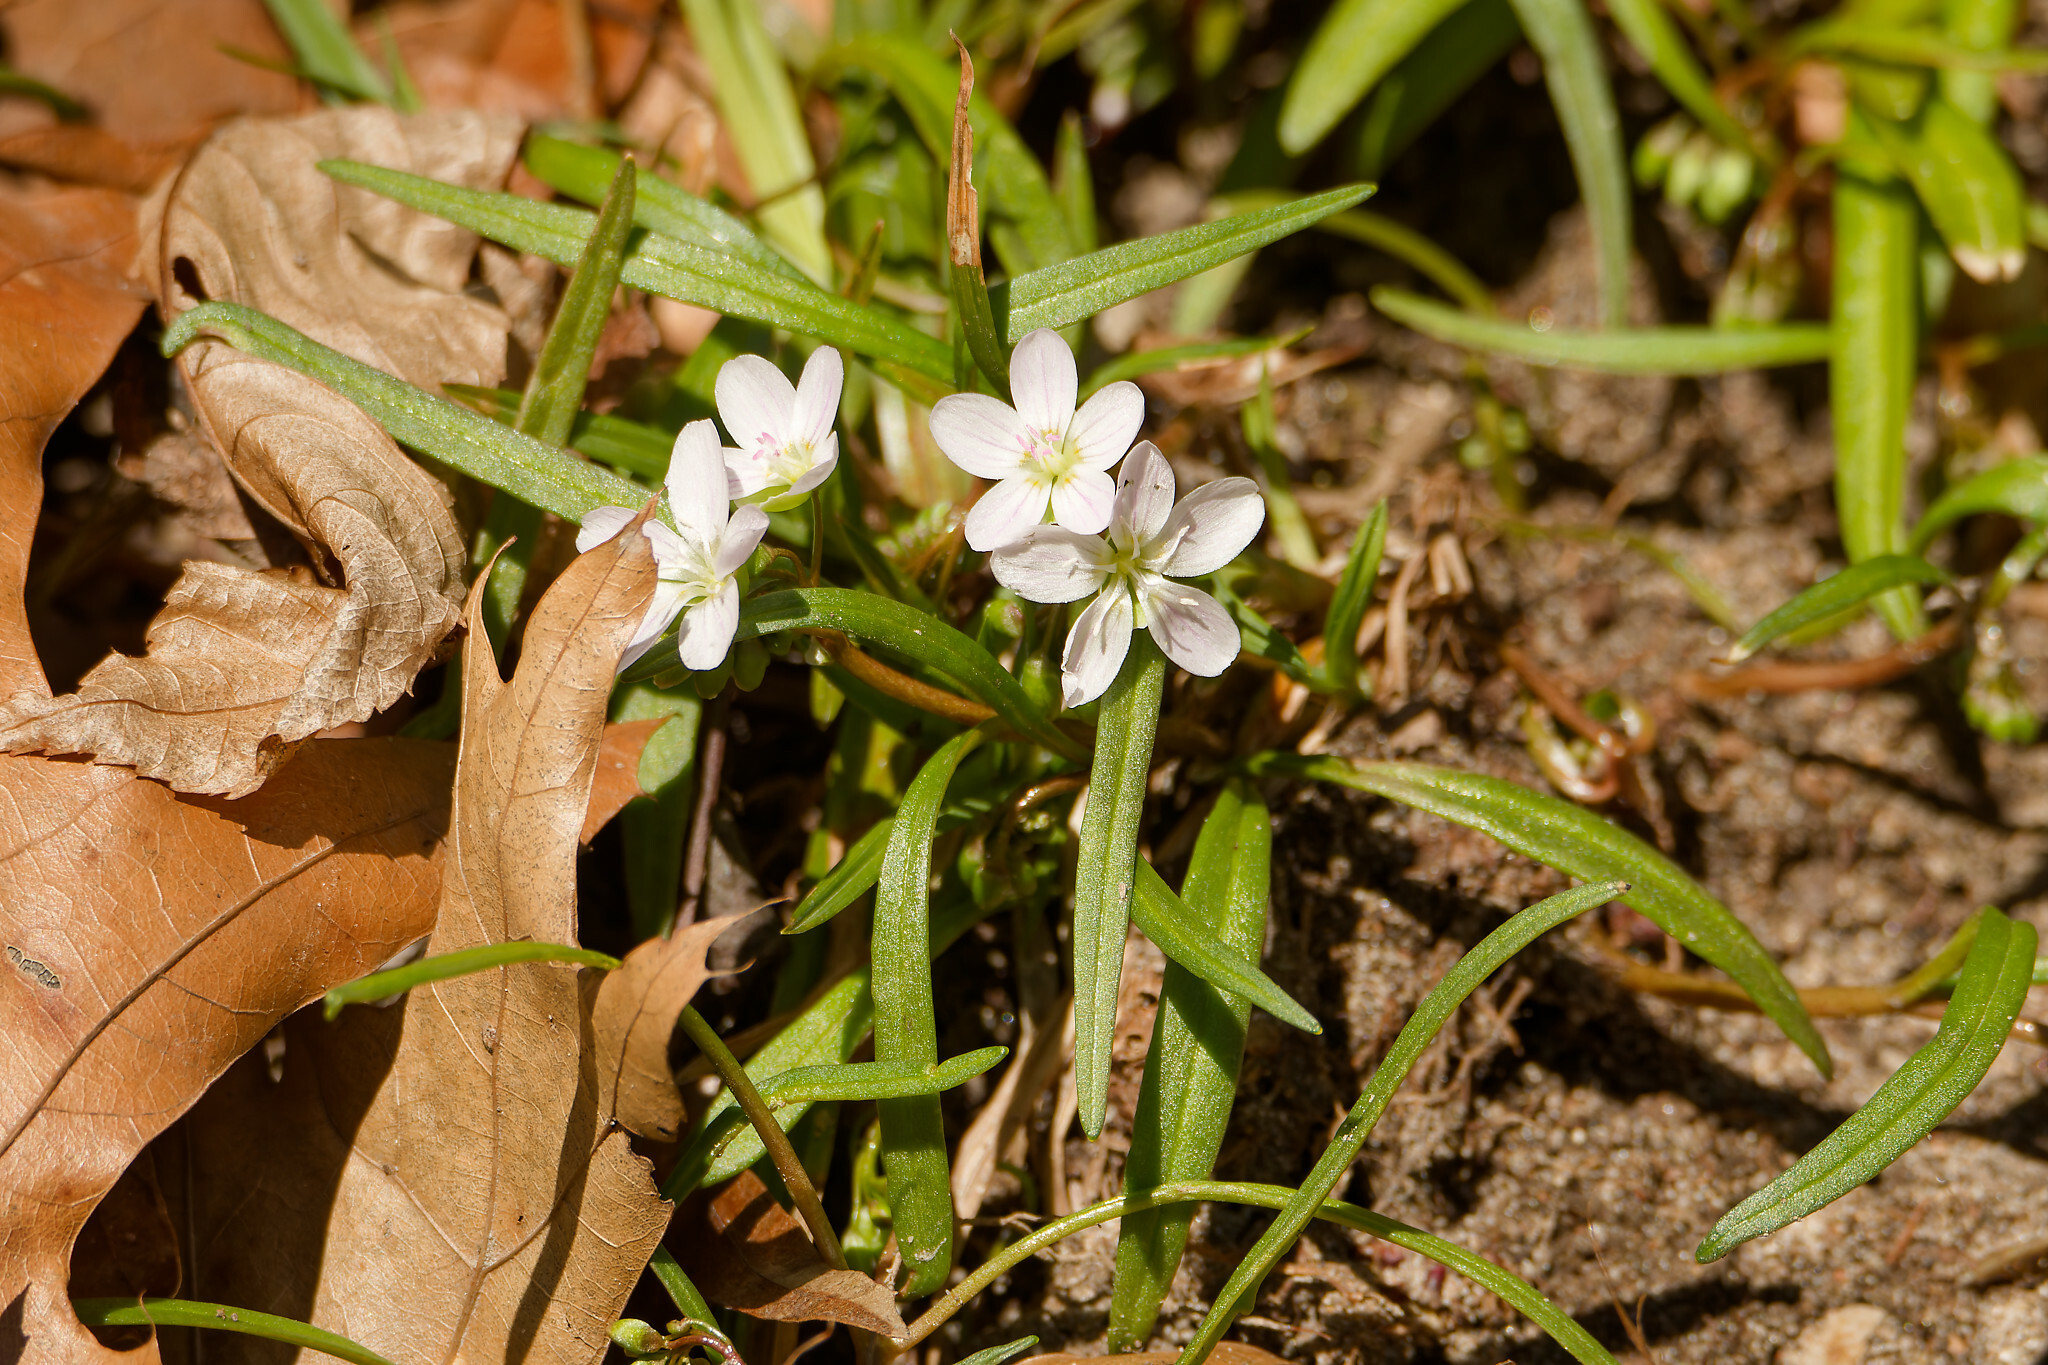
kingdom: Plantae
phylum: Tracheophyta
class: Magnoliopsida
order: Caryophyllales
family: Montiaceae
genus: Claytonia
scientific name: Claytonia virginica
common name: Virginia springbeauty
